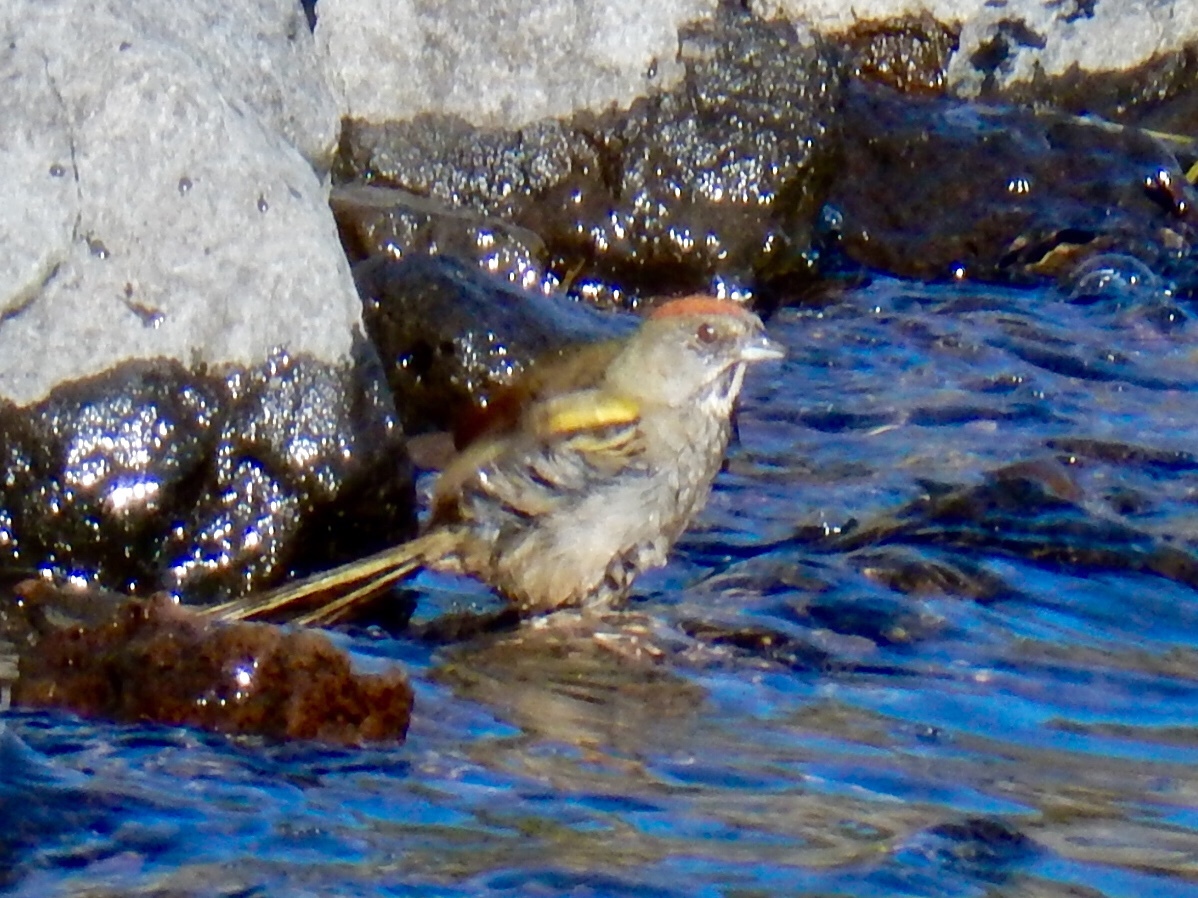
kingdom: Animalia
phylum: Chordata
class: Aves
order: Passeriformes
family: Passerellidae
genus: Pipilo
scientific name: Pipilo chlorurus
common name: Green-tailed towhee
